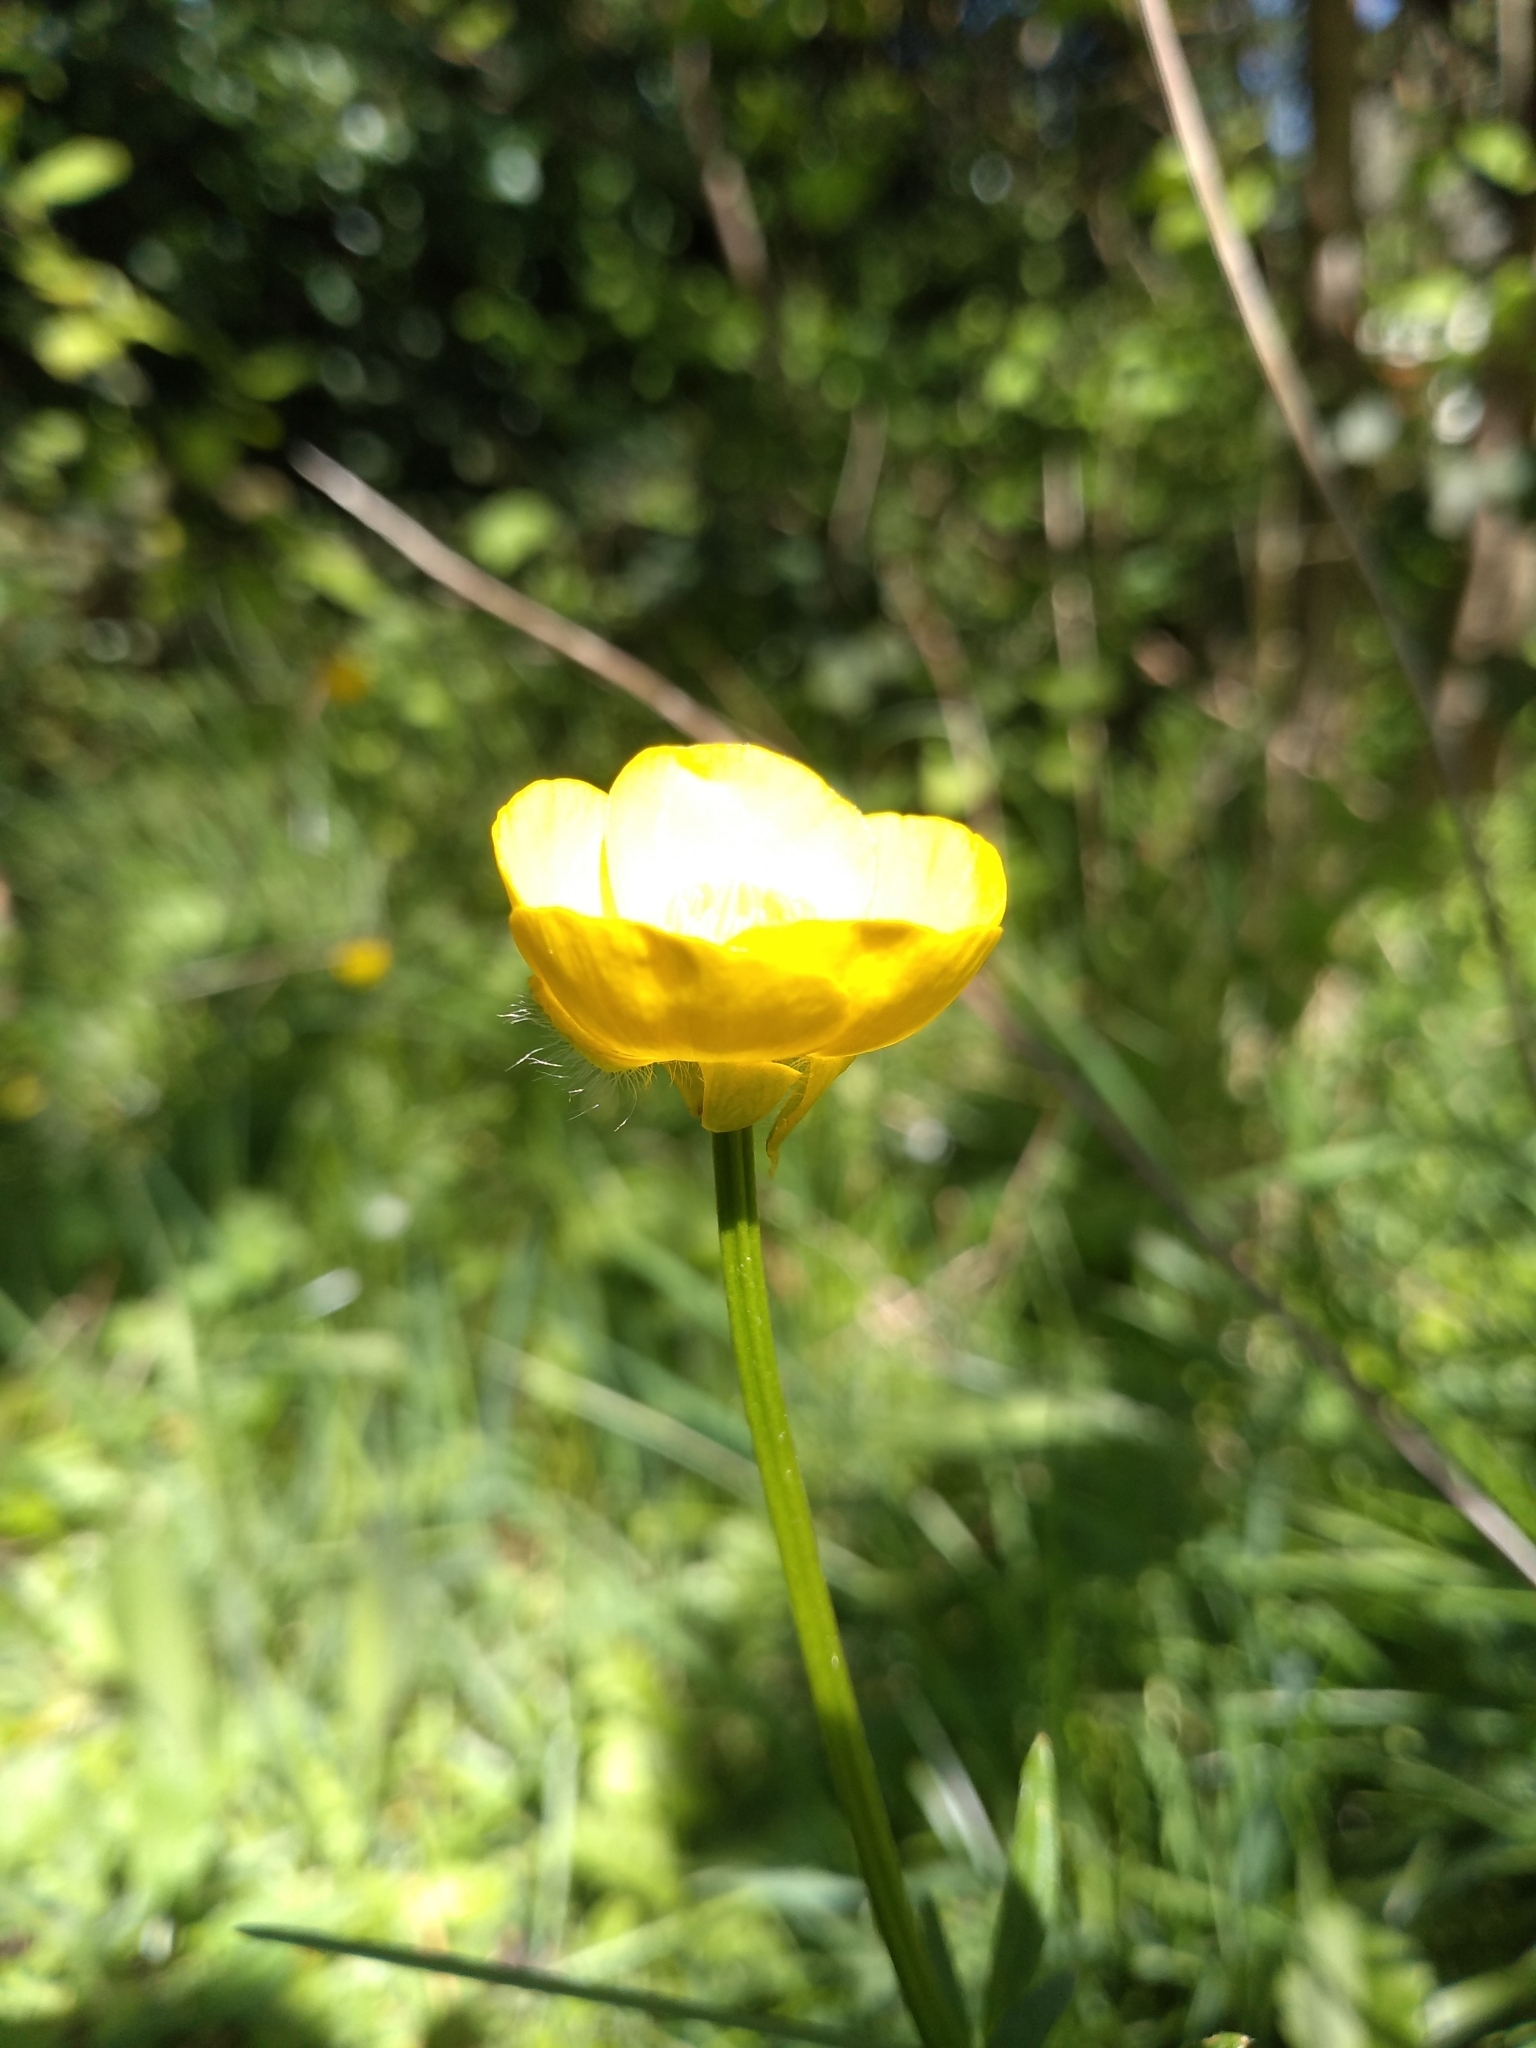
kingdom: Plantae
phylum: Tracheophyta
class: Magnoliopsida
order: Ranunculales
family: Ranunculaceae
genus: Ranunculus
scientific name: Ranunculus bulbosus
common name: Bulbous buttercup
